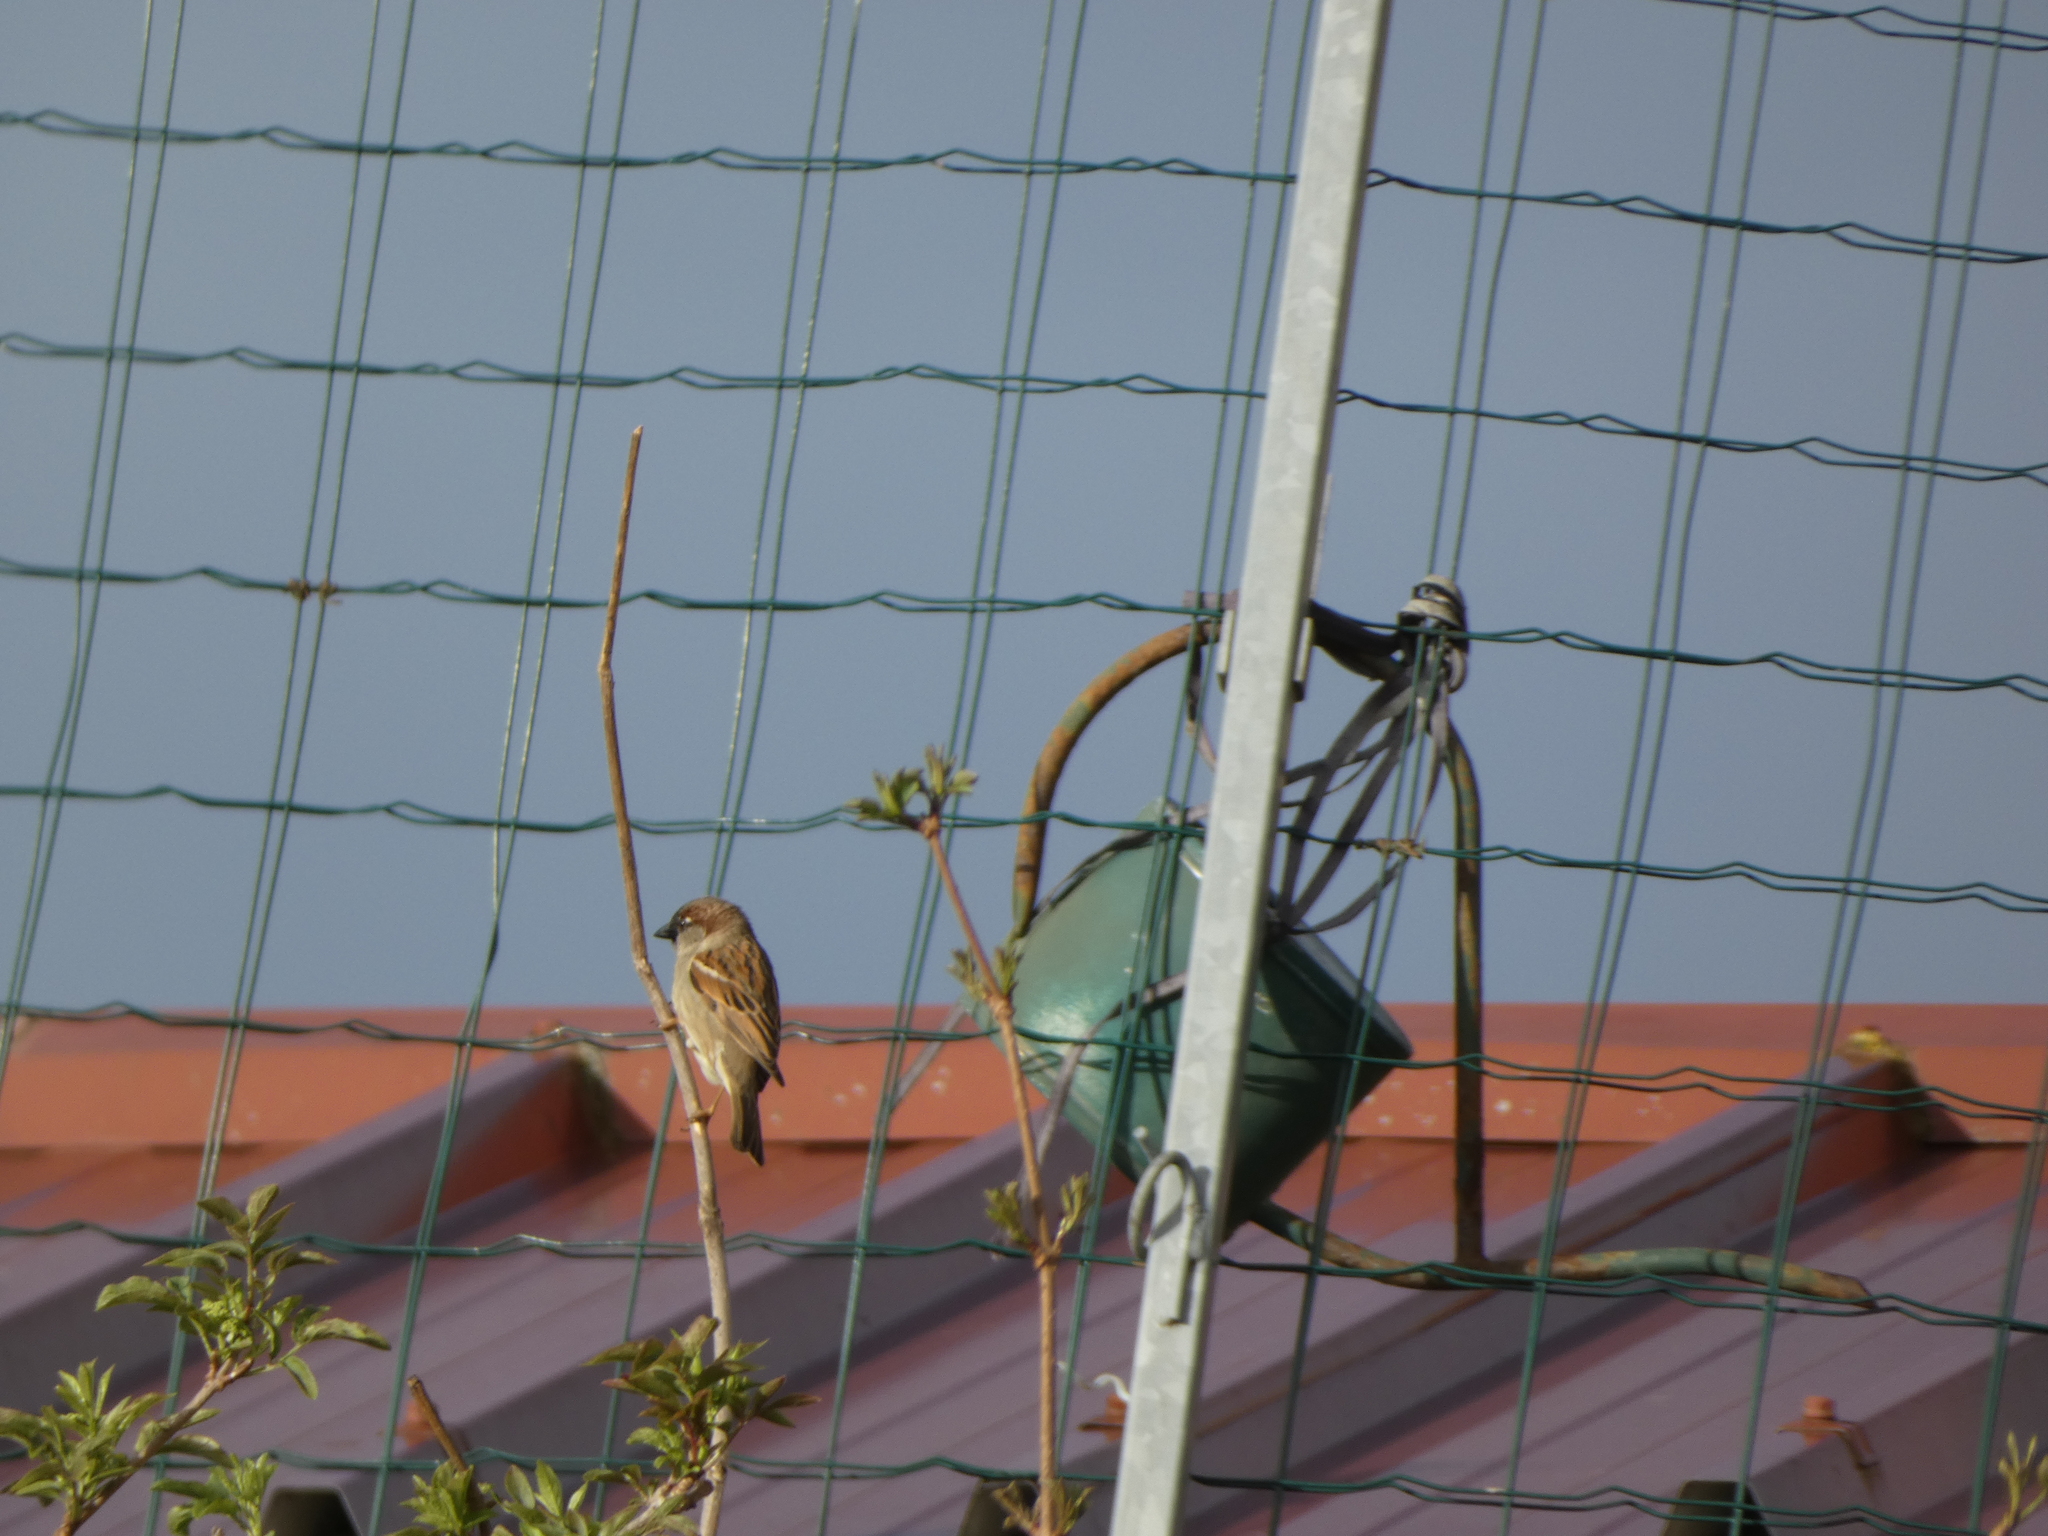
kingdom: Animalia
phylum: Chordata
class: Aves
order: Passeriformes
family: Passeridae
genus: Passer
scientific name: Passer domesticus
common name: House sparrow
